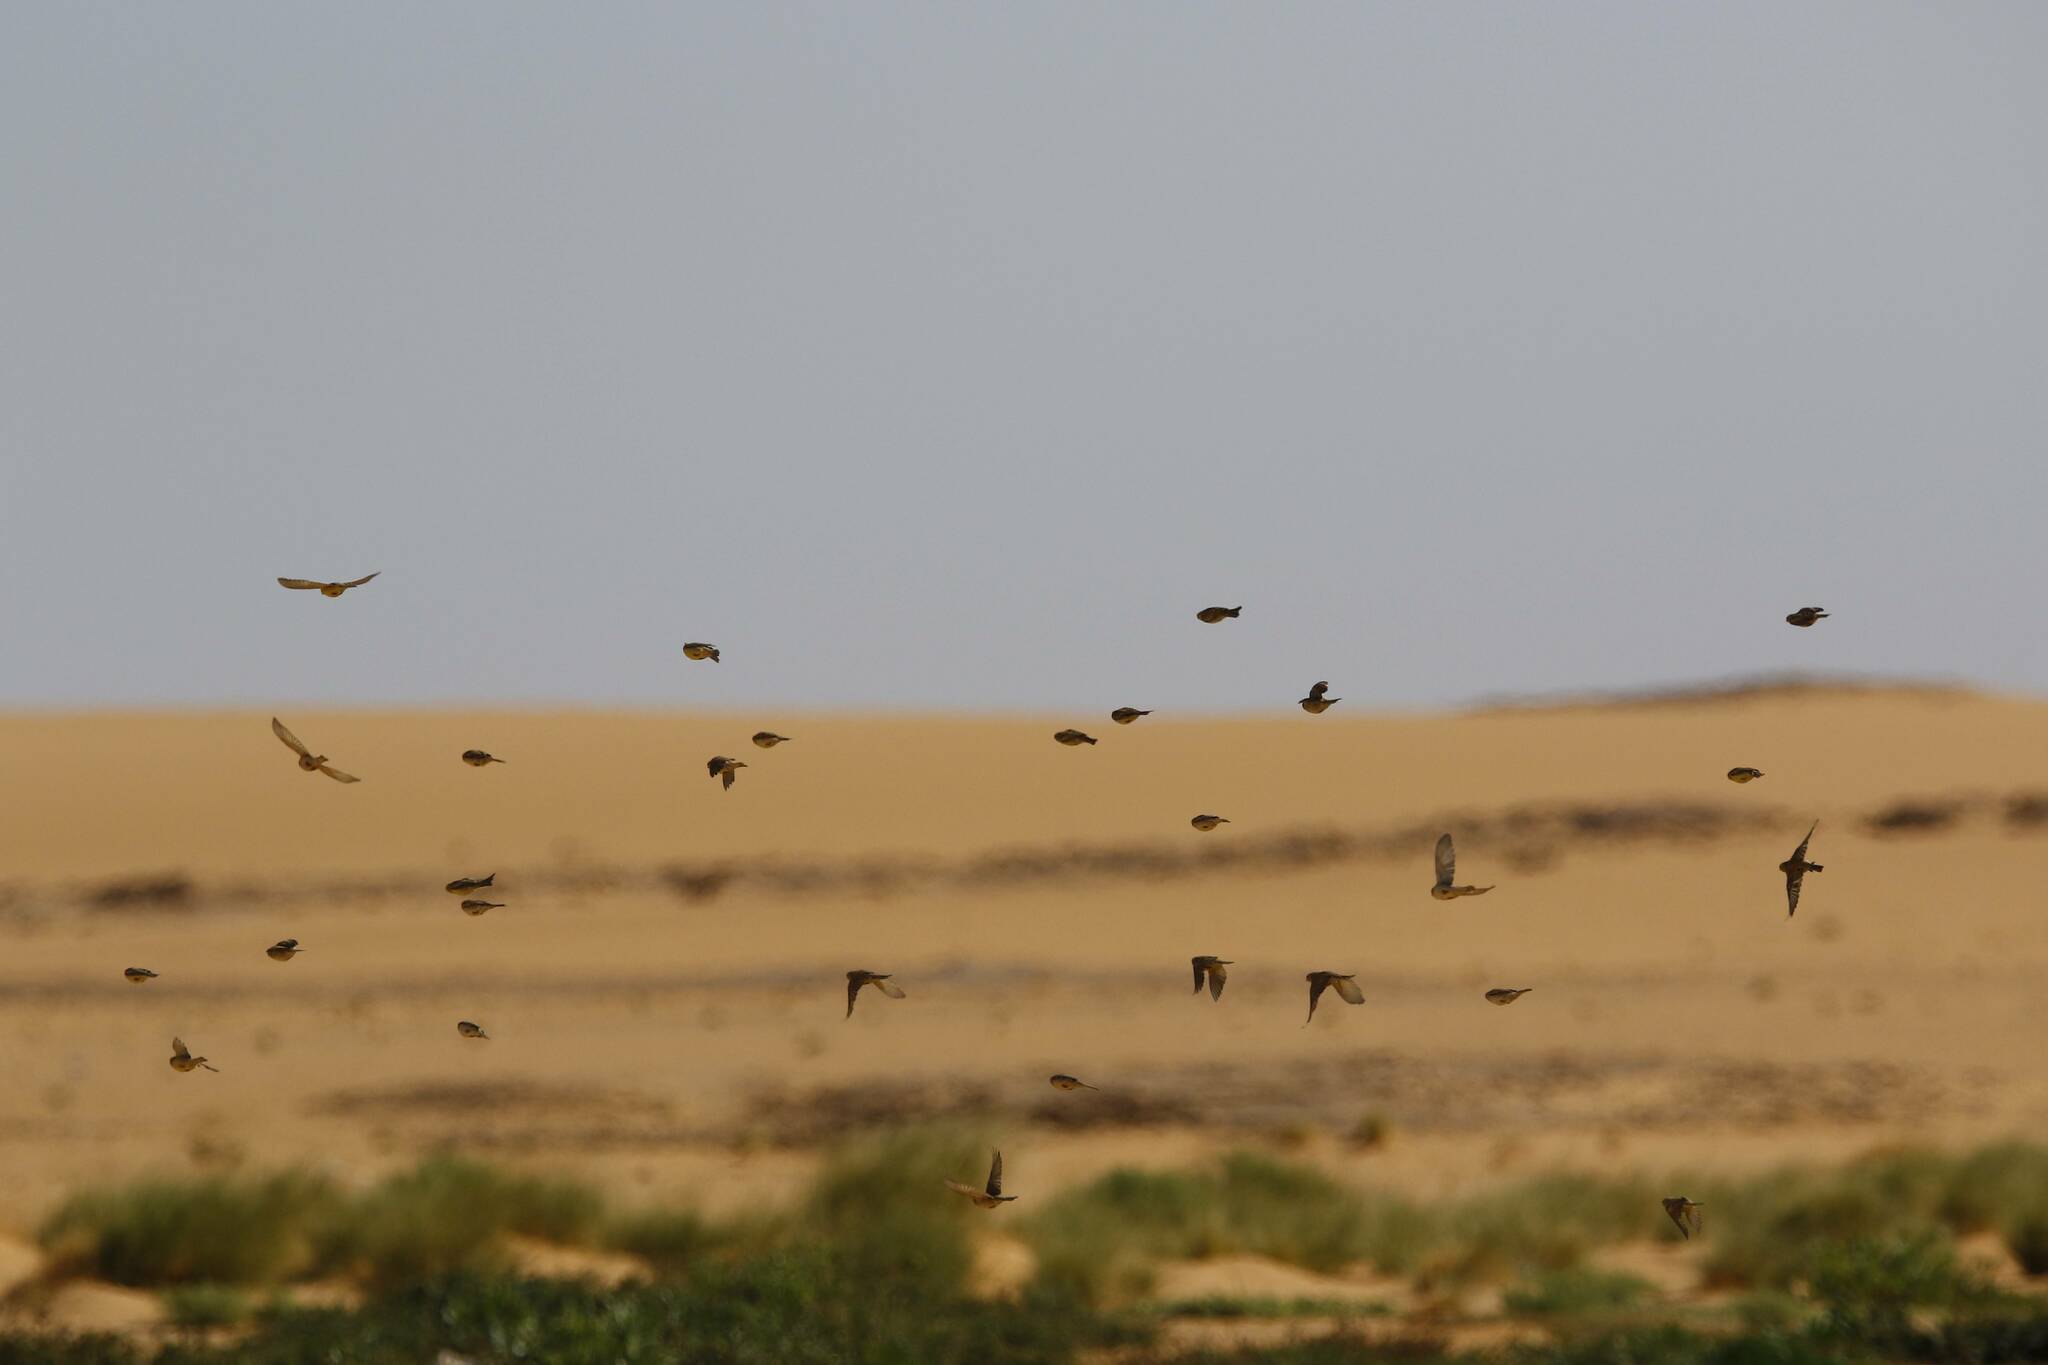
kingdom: Animalia
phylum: Chordata
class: Aves
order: Passeriformes
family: Passeridae
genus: Passer
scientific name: Passer luteus
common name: Sudan golden sparrow
